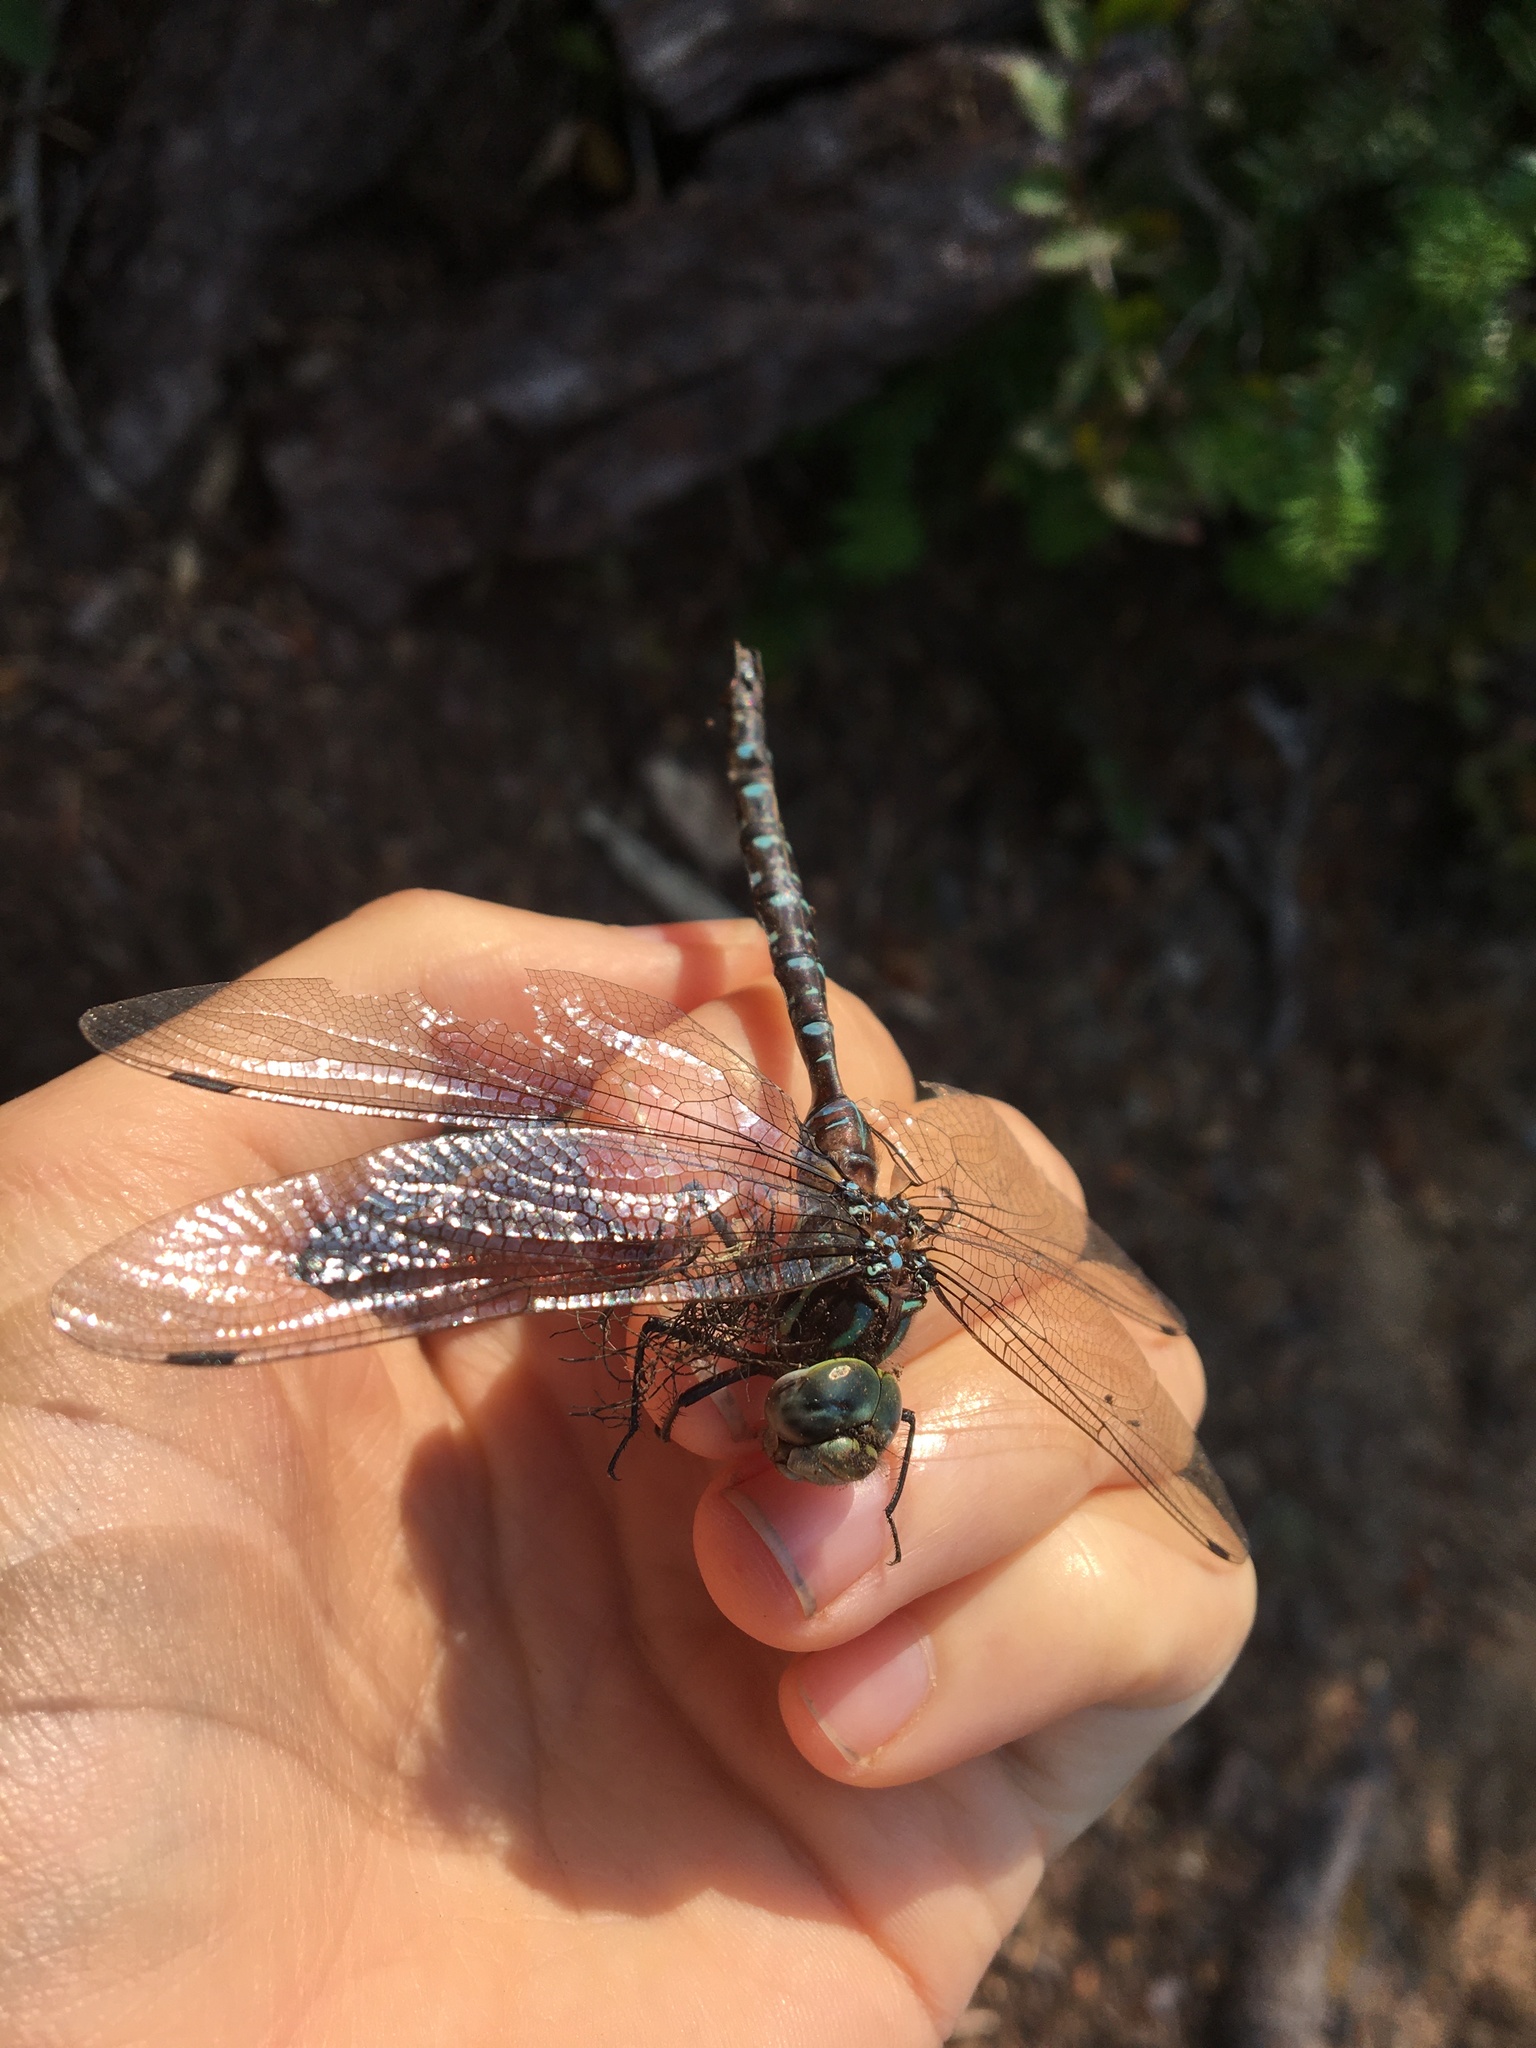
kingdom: Animalia
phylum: Arthropoda
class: Insecta
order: Odonata
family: Aeshnidae
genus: Aeshna
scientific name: Aeshna umbrosa
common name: Shadow darner
